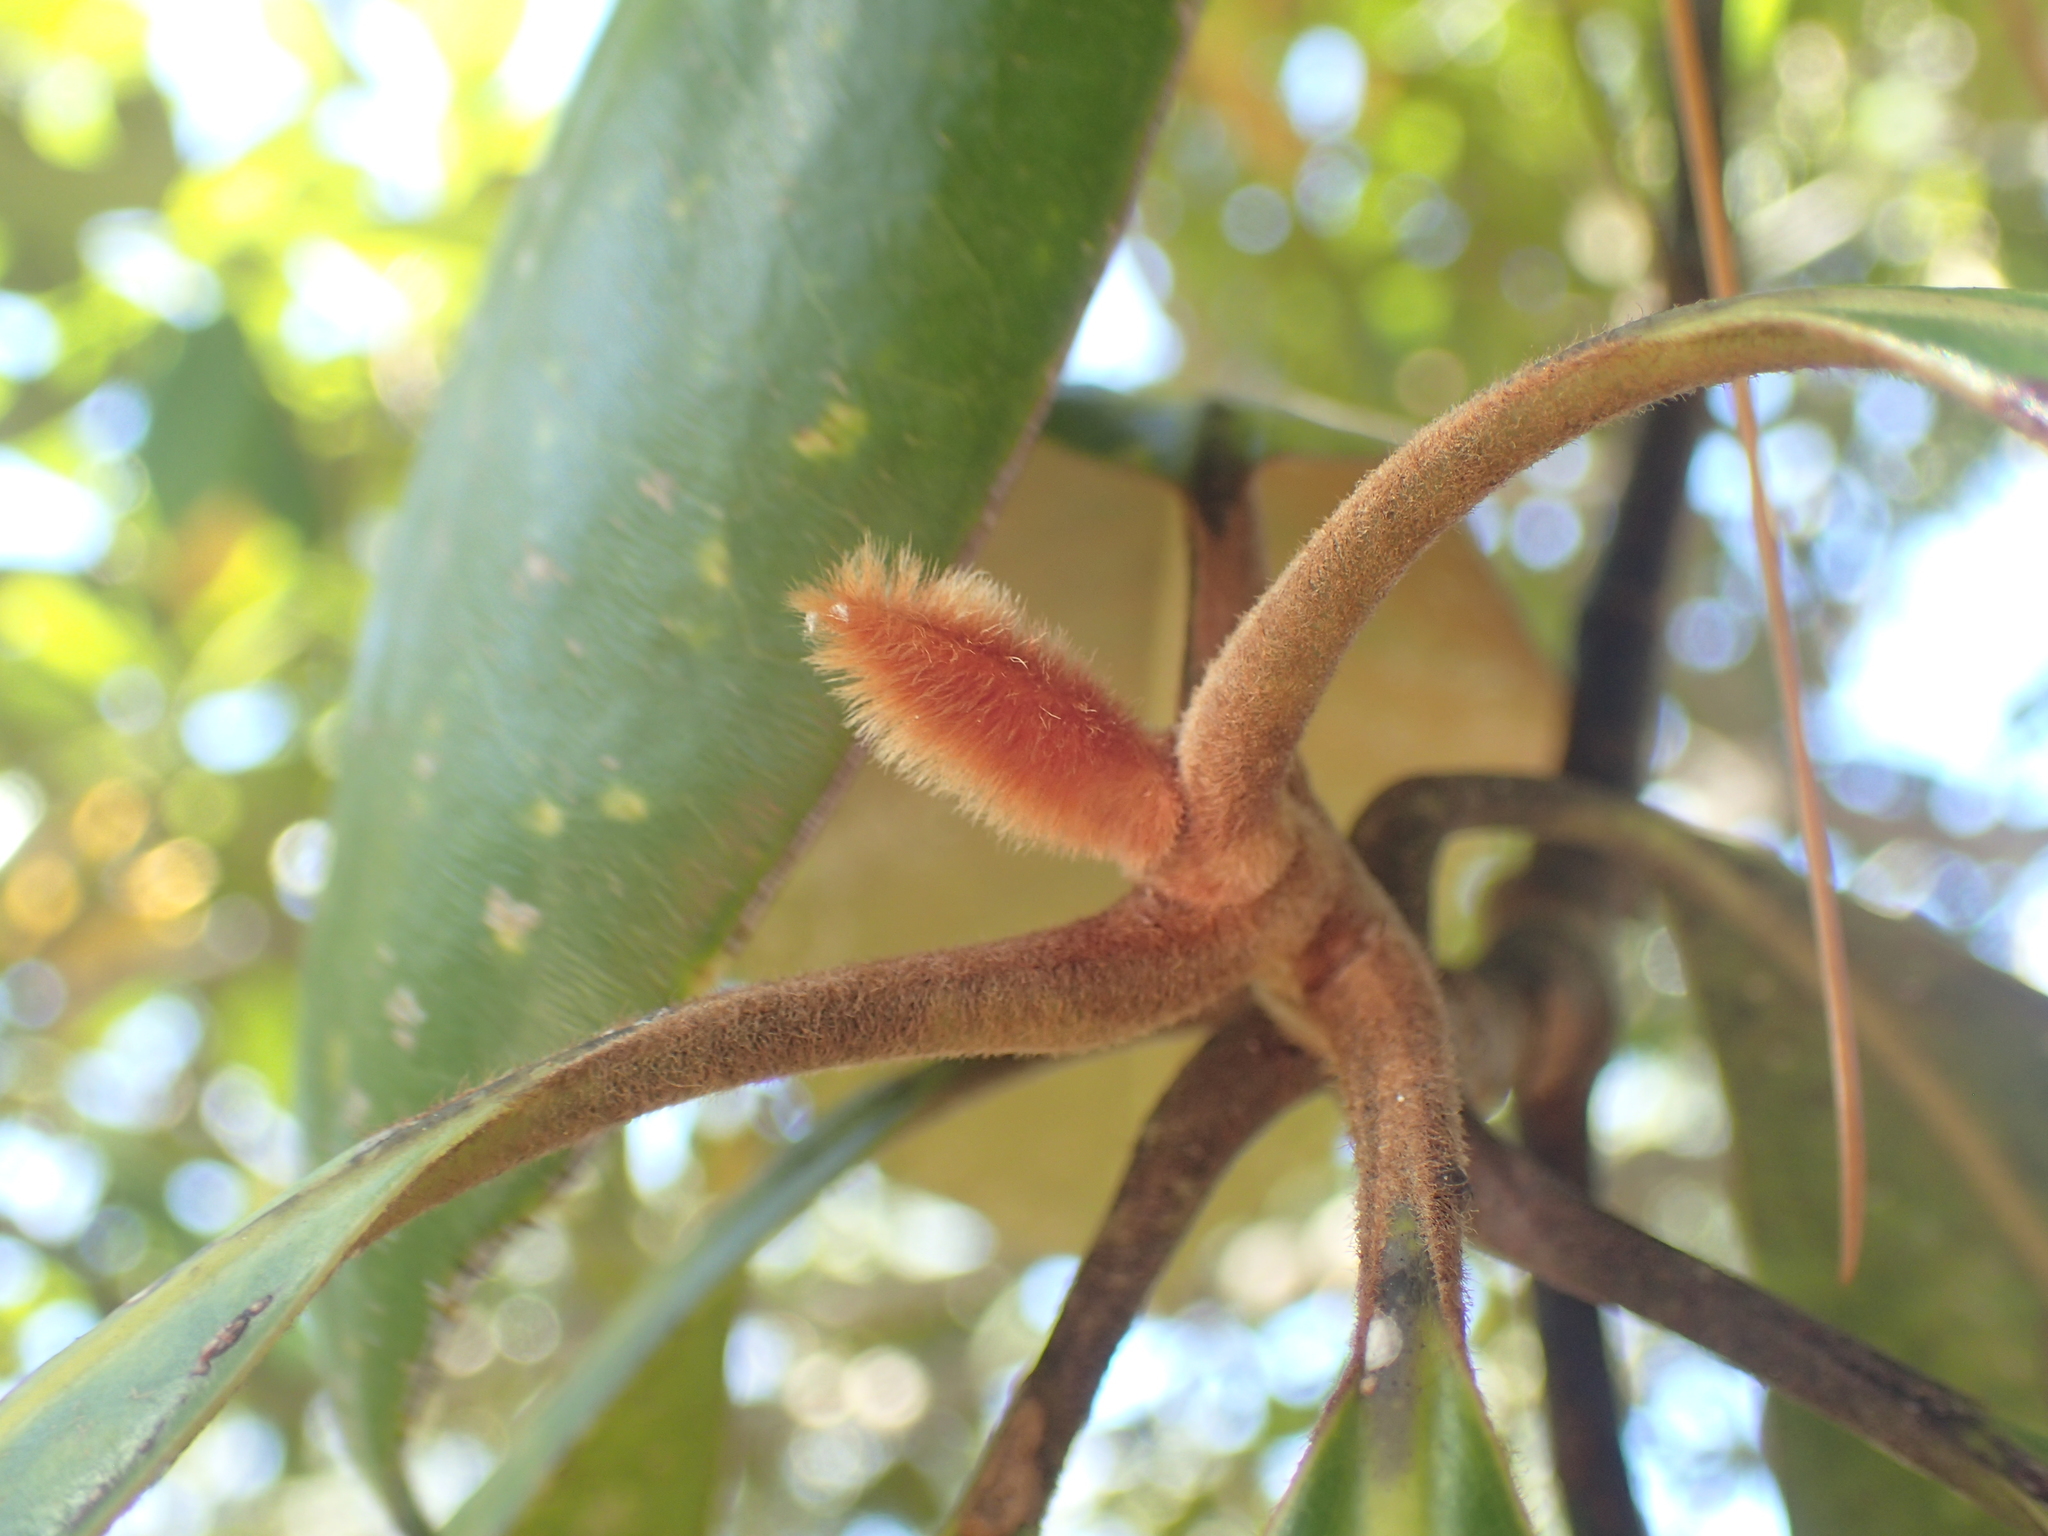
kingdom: Plantae
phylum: Tracheophyta
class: Magnoliopsida
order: Magnoliales
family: Magnoliaceae
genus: Magnolia
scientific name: Magnolia grandiflora
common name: Southern magnolia
